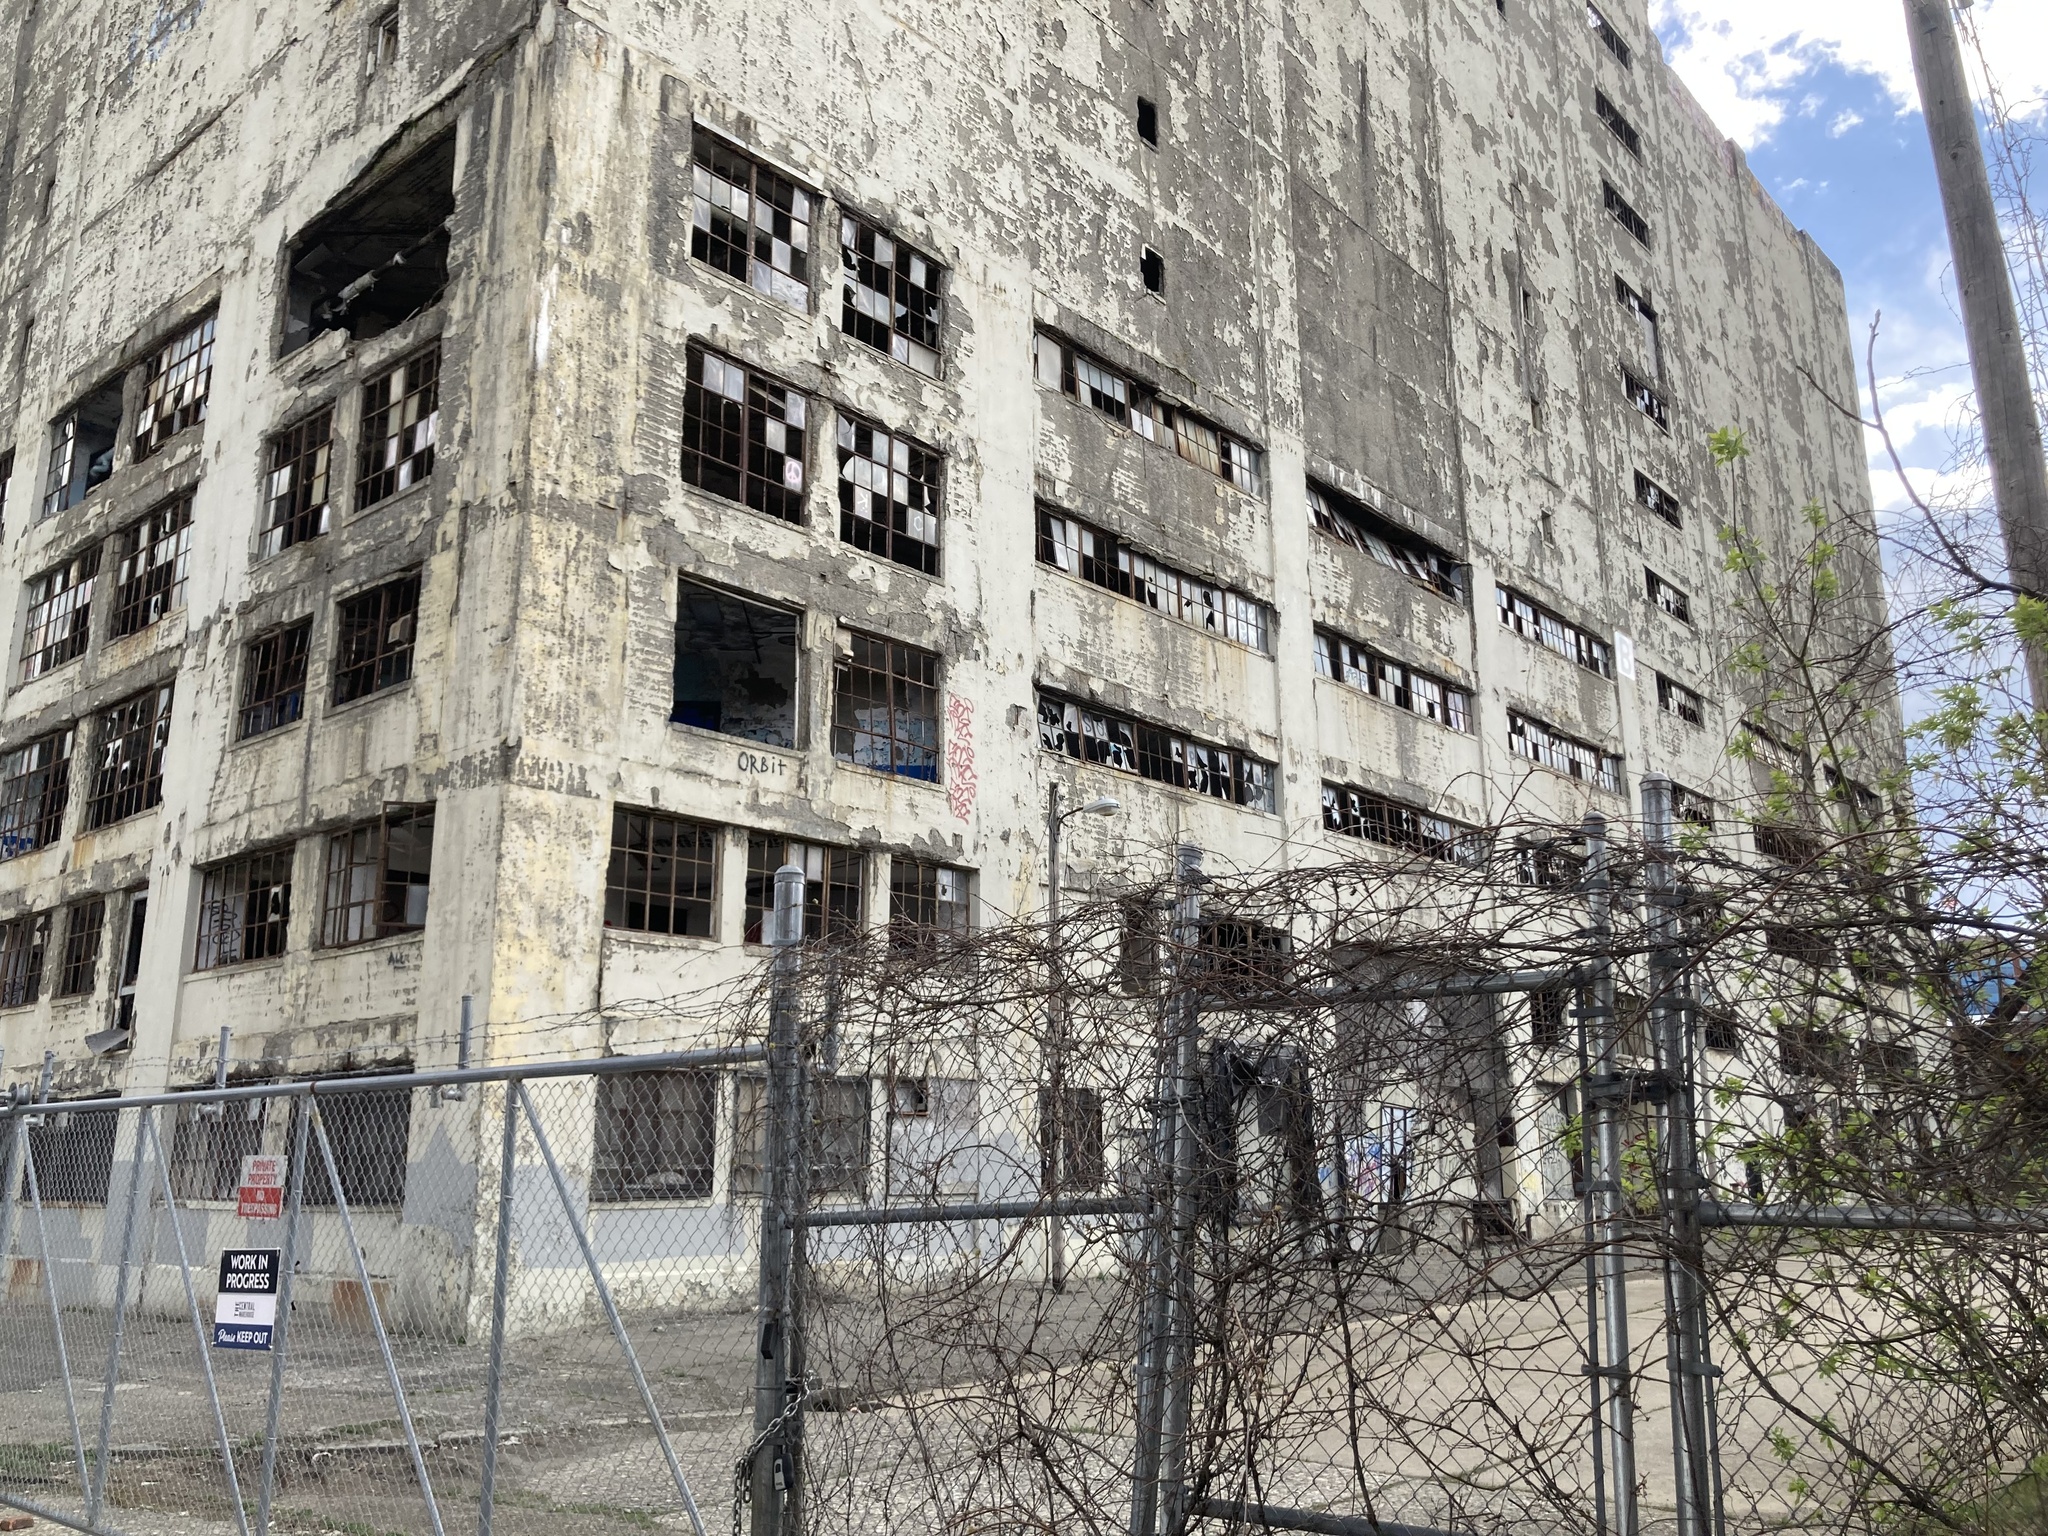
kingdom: Plantae
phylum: Tracheophyta
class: Magnoliopsida
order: Sapindales
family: Sapindaceae
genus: Acer
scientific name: Acer negundo
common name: Ashleaf maple
